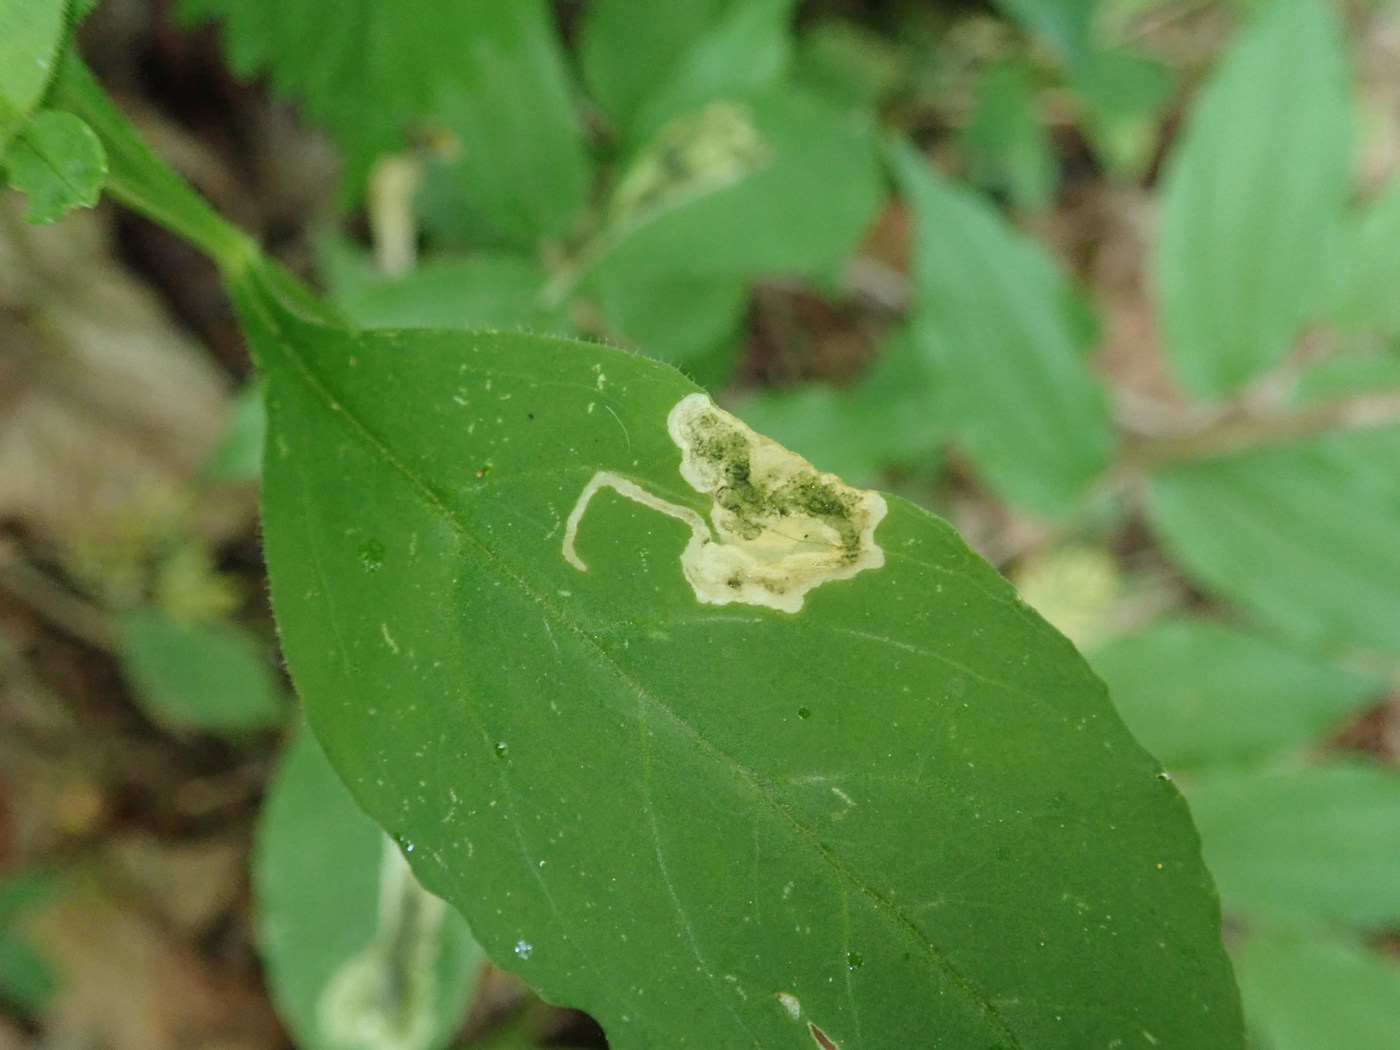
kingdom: Animalia
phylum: Arthropoda
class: Insecta
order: Diptera
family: Anthomyiidae
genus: Pegomya
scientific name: Pegomya flavifrons
